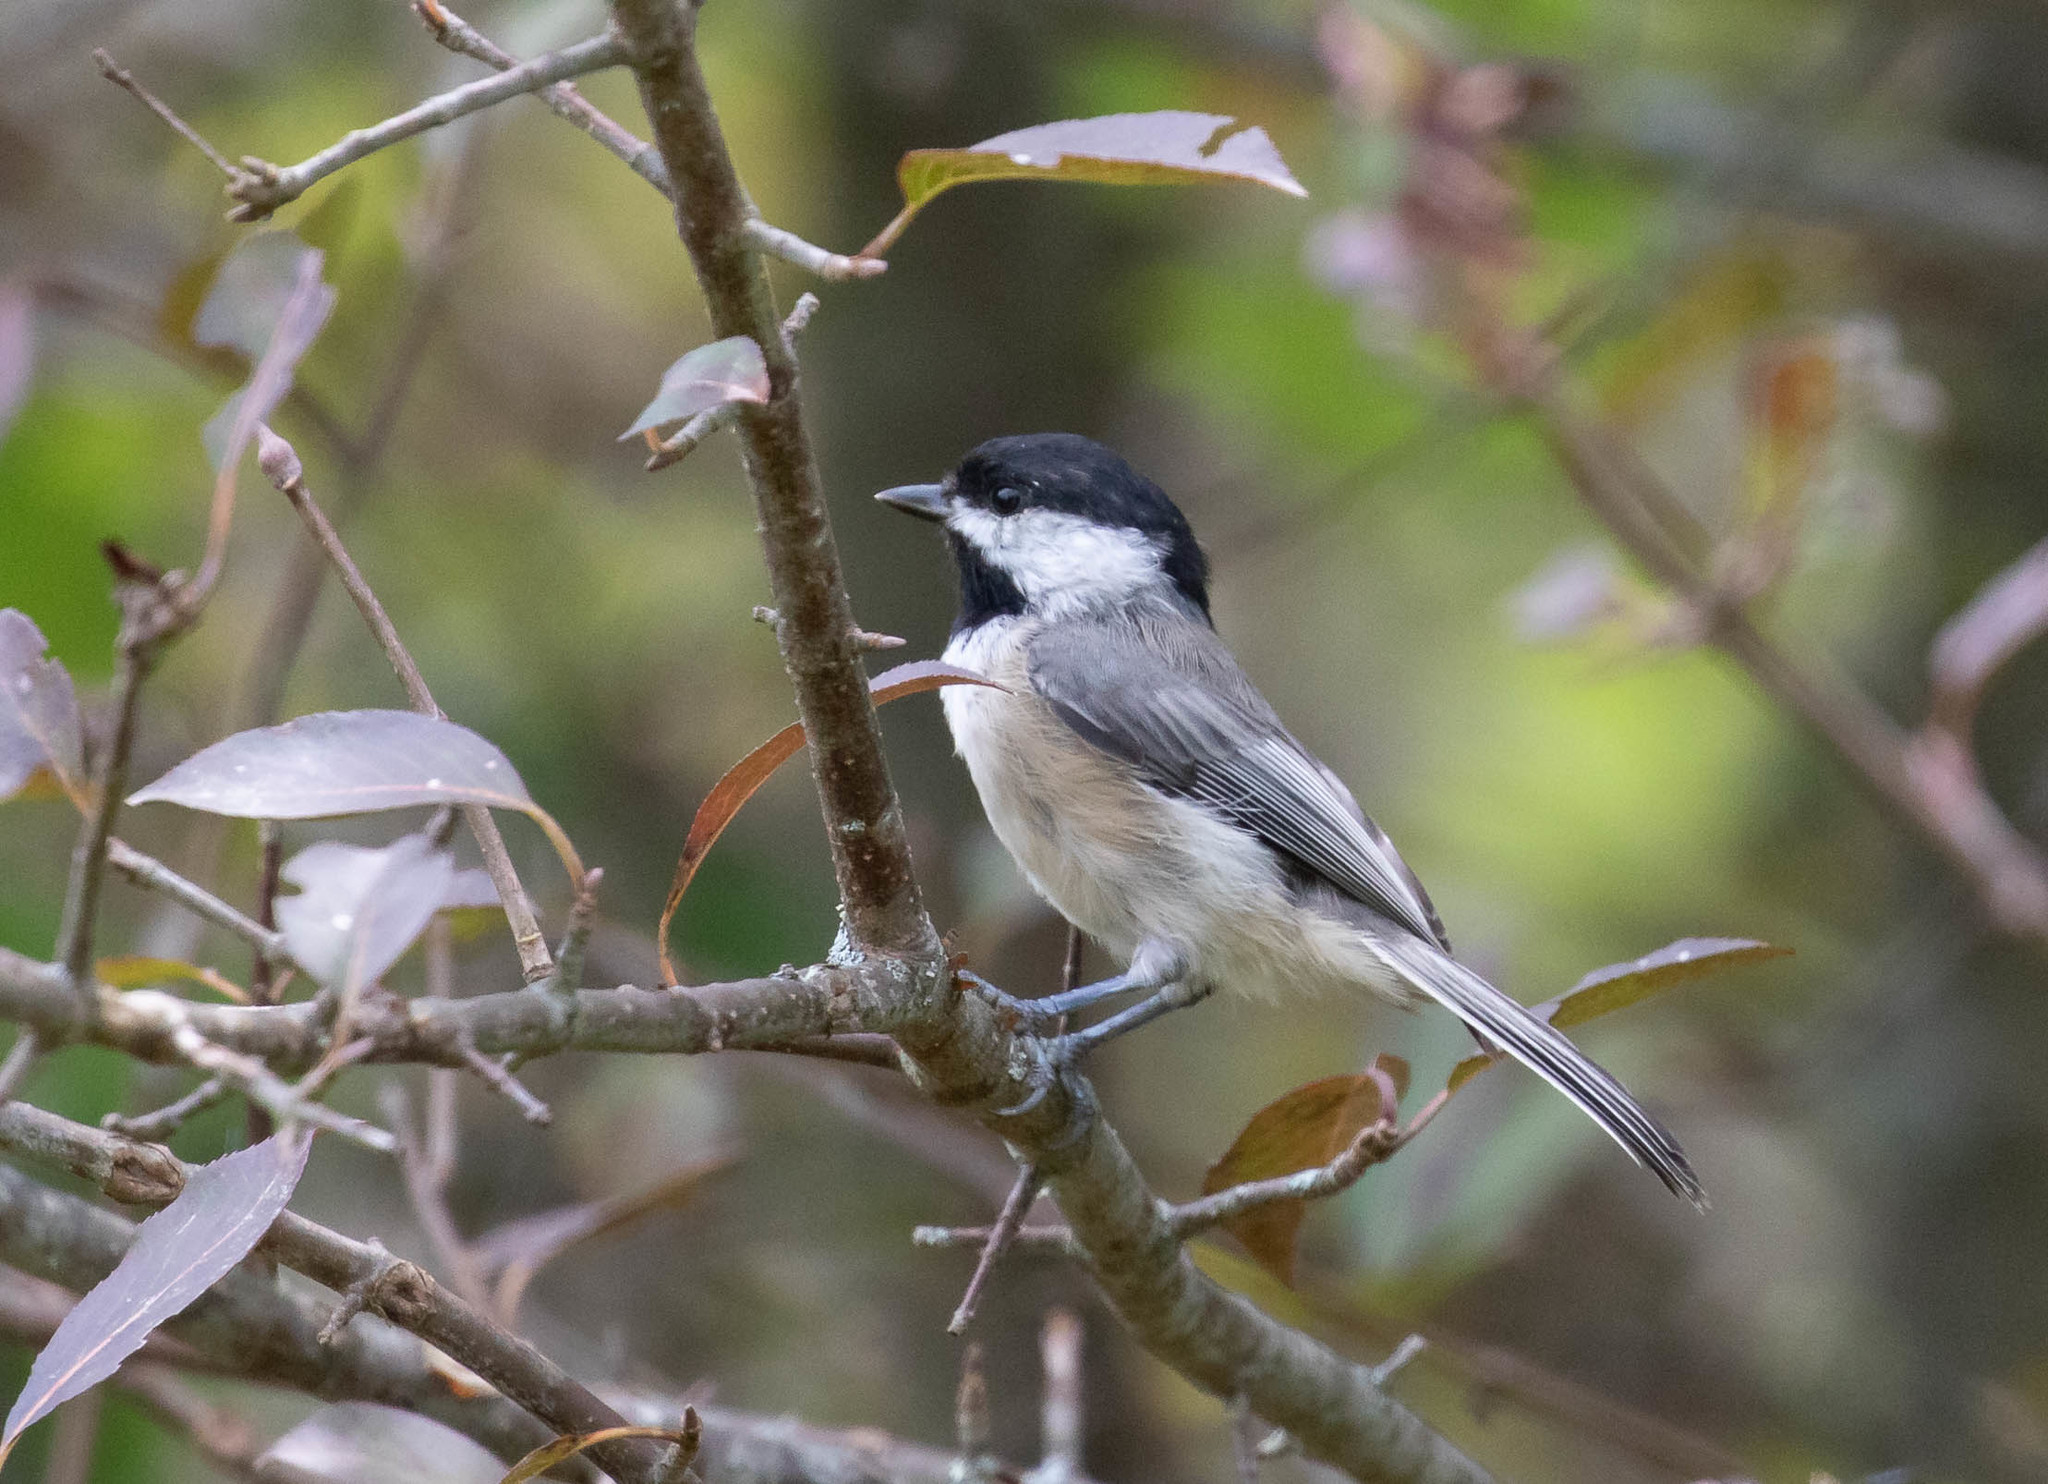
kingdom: Animalia
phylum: Chordata
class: Aves
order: Passeriformes
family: Paridae
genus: Poecile
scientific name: Poecile carolinensis
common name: Carolina chickadee
